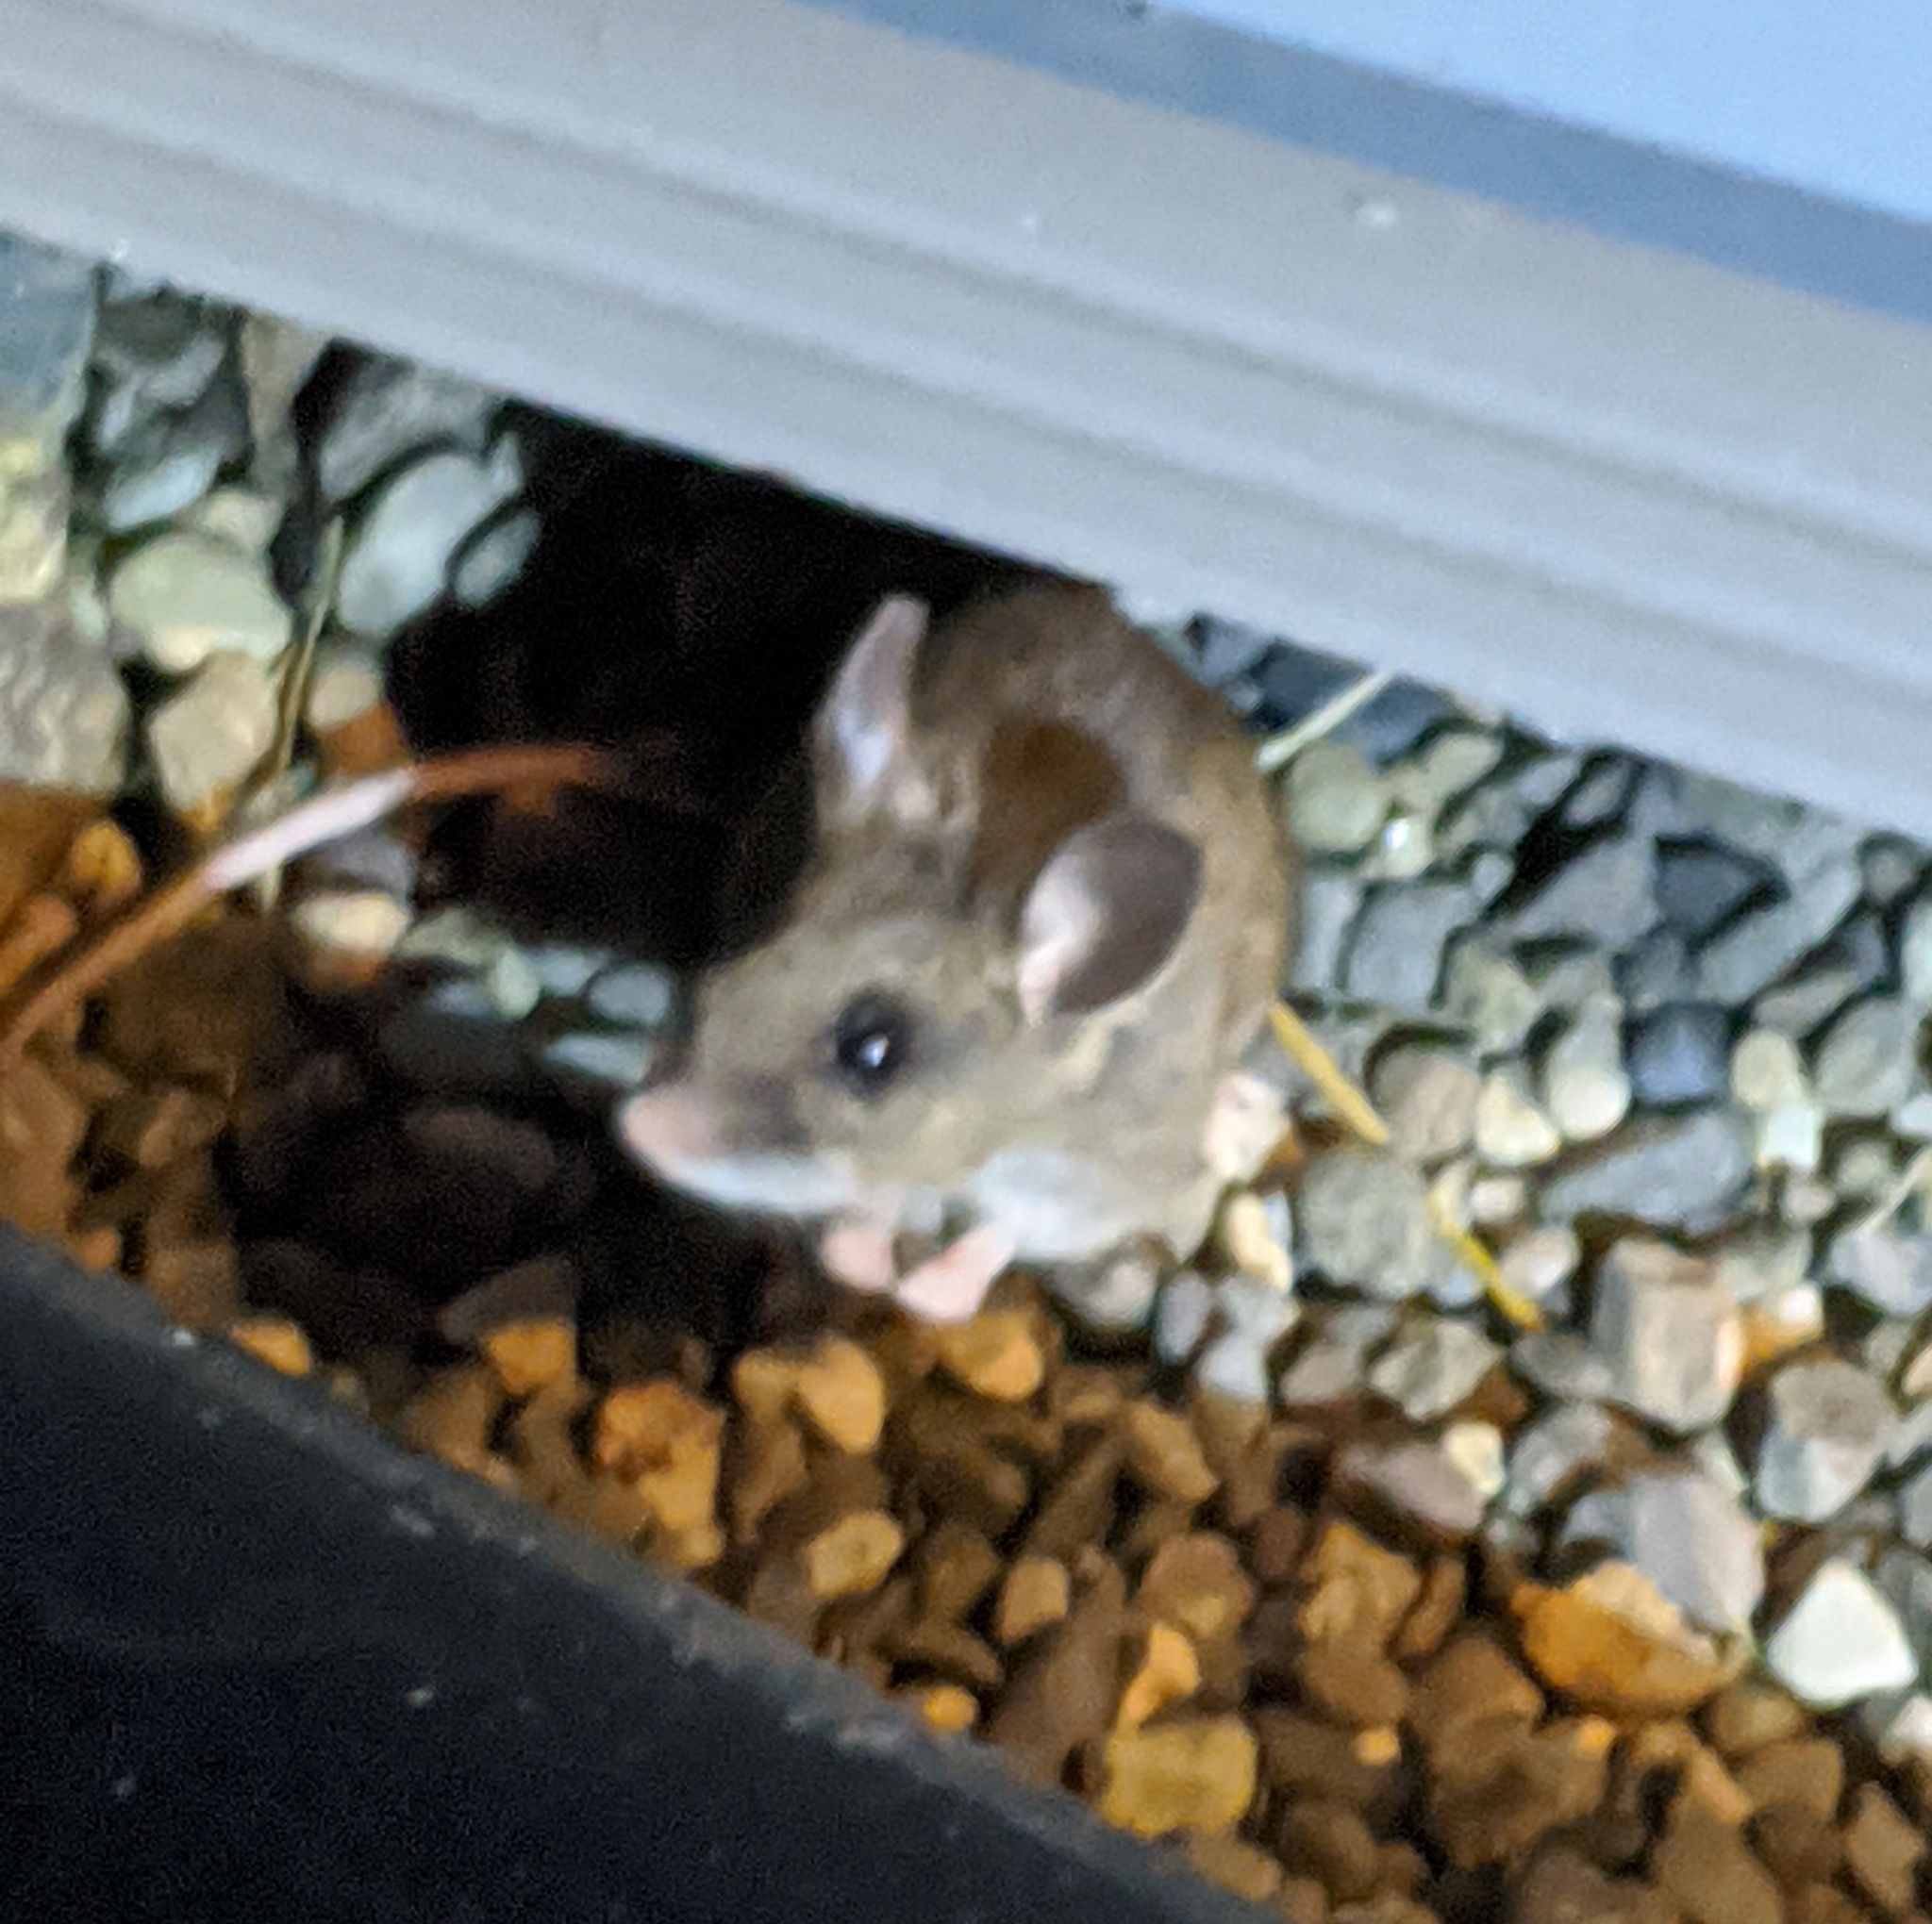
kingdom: Animalia
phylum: Chordata
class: Mammalia
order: Rodentia
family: Cricetidae
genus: Peromyscus
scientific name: Peromyscus maniculatus
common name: Deer mouse
